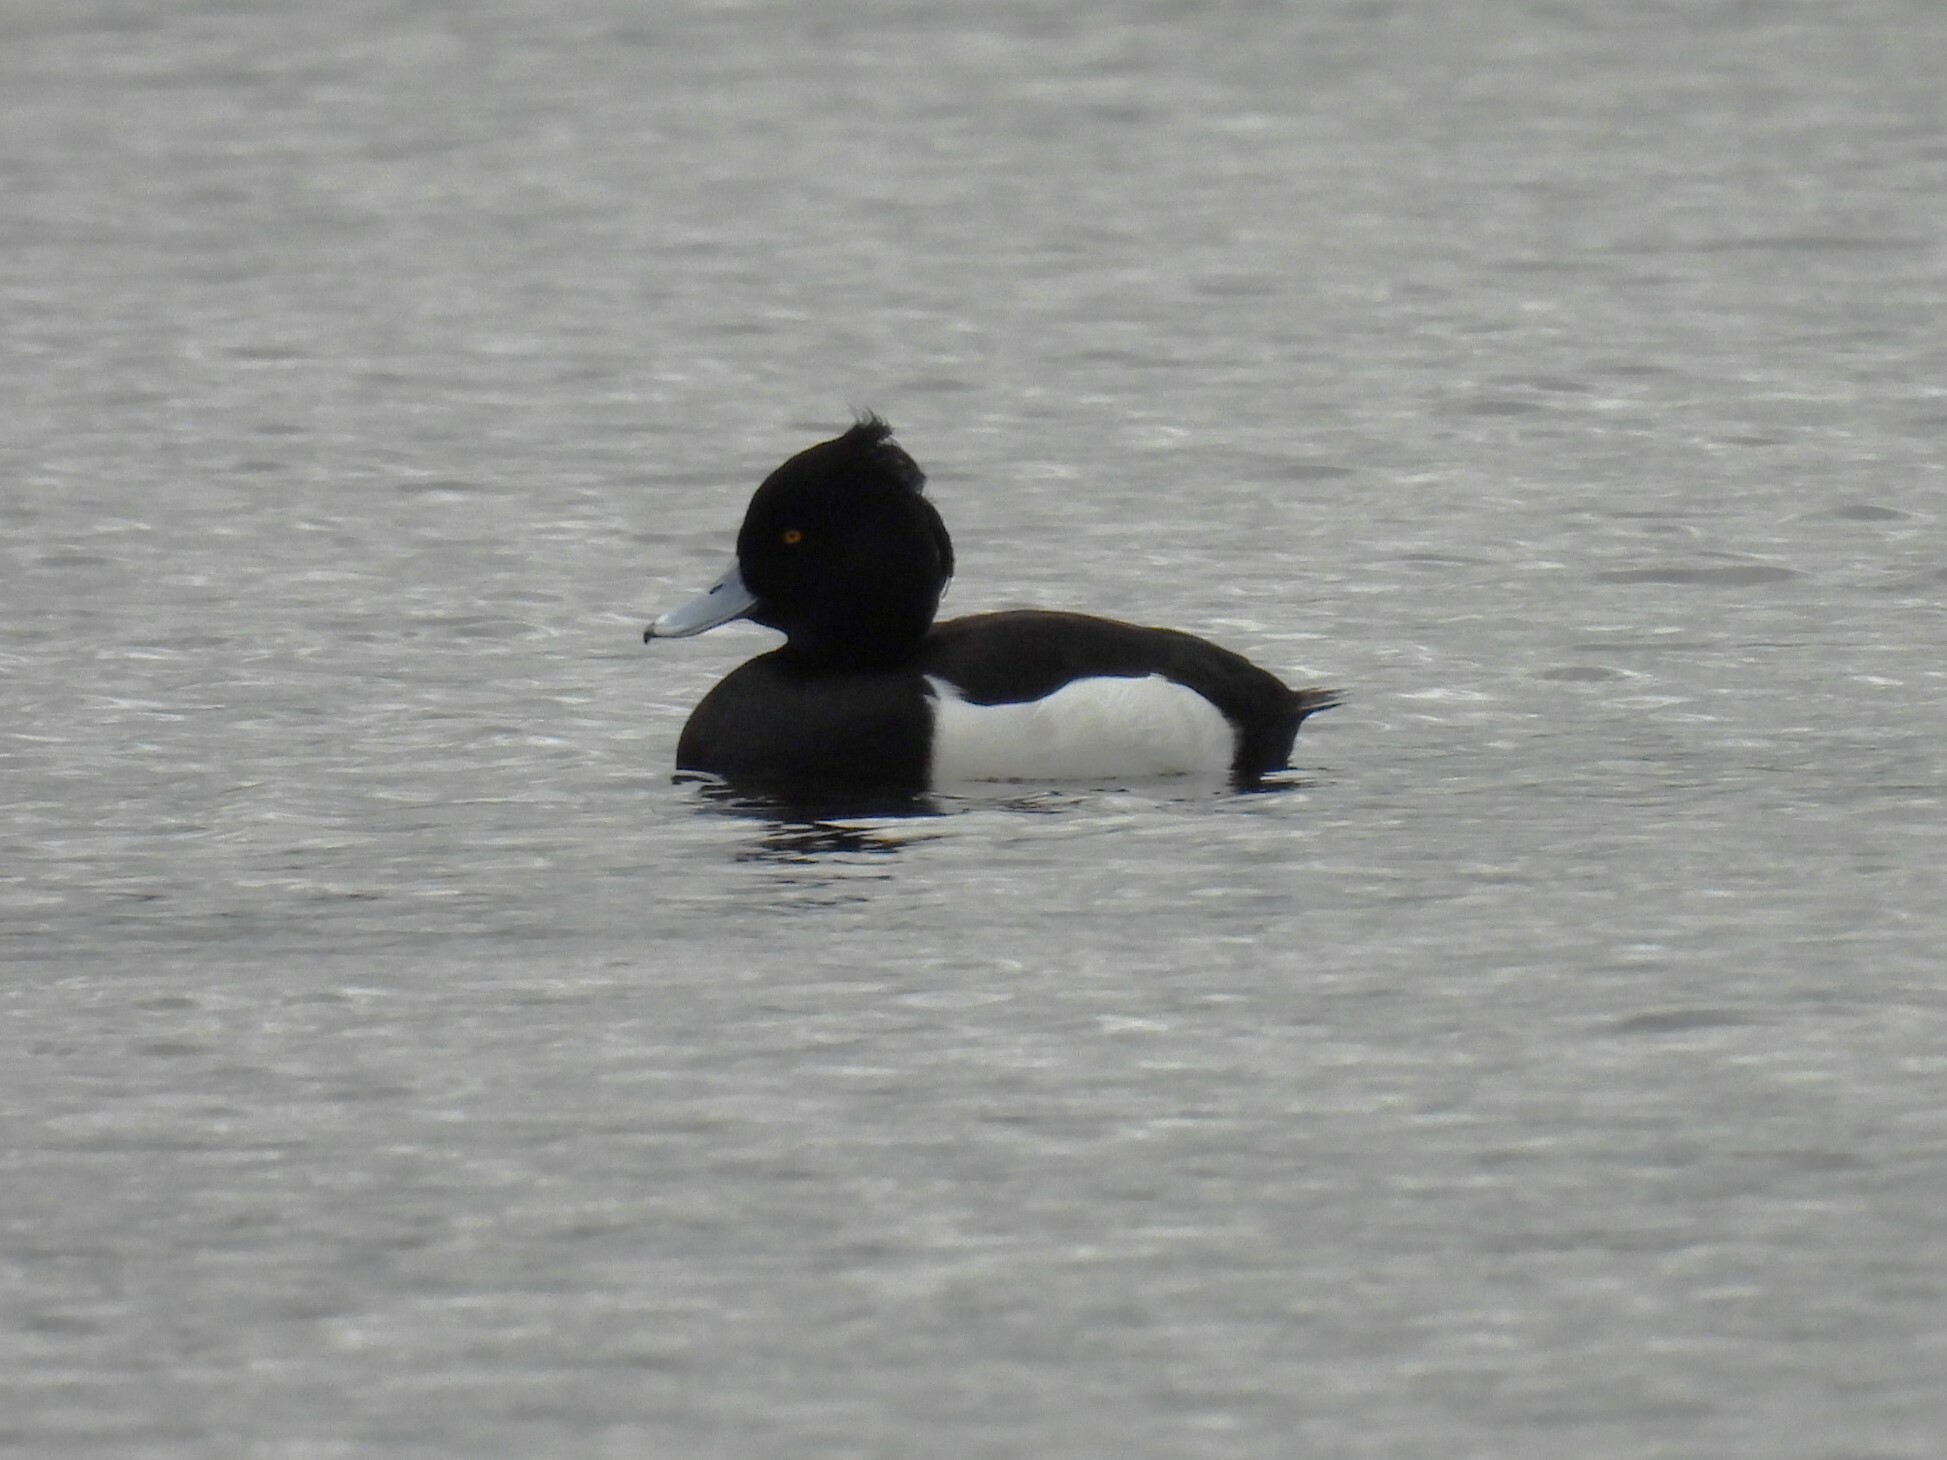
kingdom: Animalia
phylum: Chordata
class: Aves
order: Anseriformes
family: Anatidae
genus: Aythya
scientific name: Aythya fuligula
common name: Tufted duck
